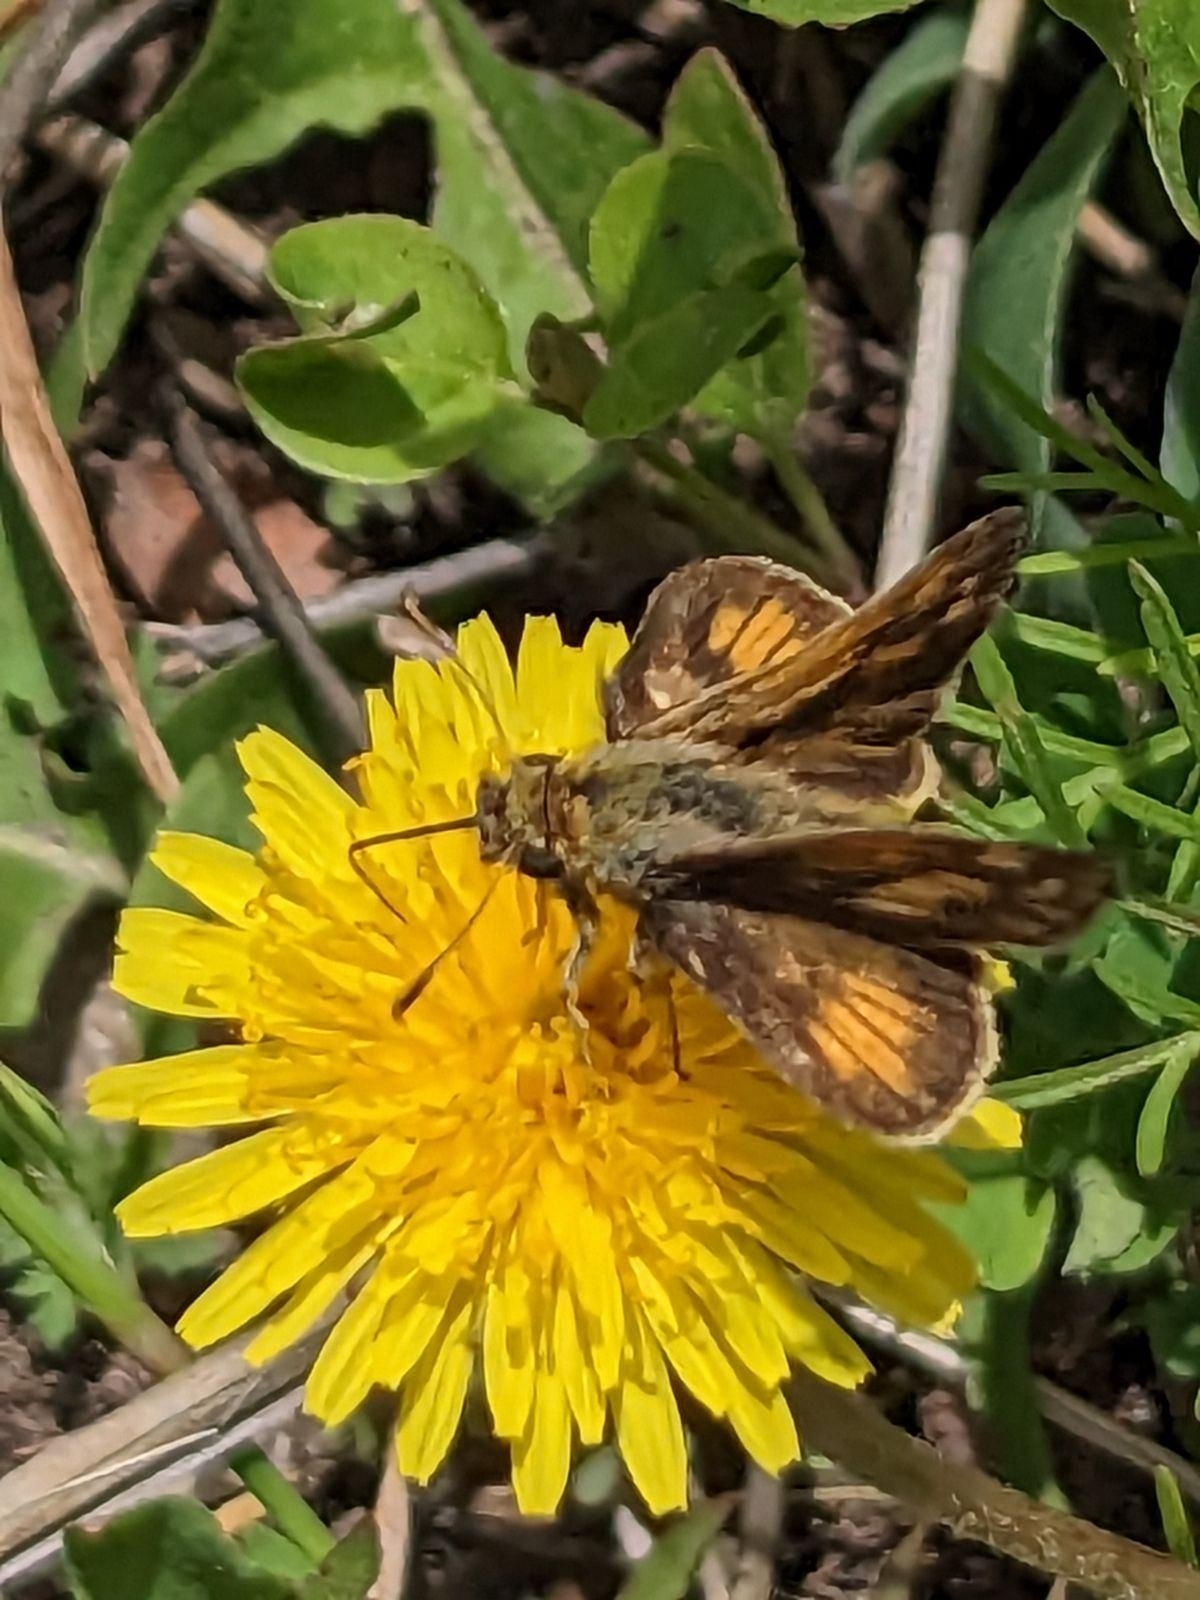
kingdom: Animalia
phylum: Arthropoda
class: Insecta
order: Lepidoptera
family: Hesperiidae
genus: Polites
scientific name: Polites coras
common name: Peck's skipper
